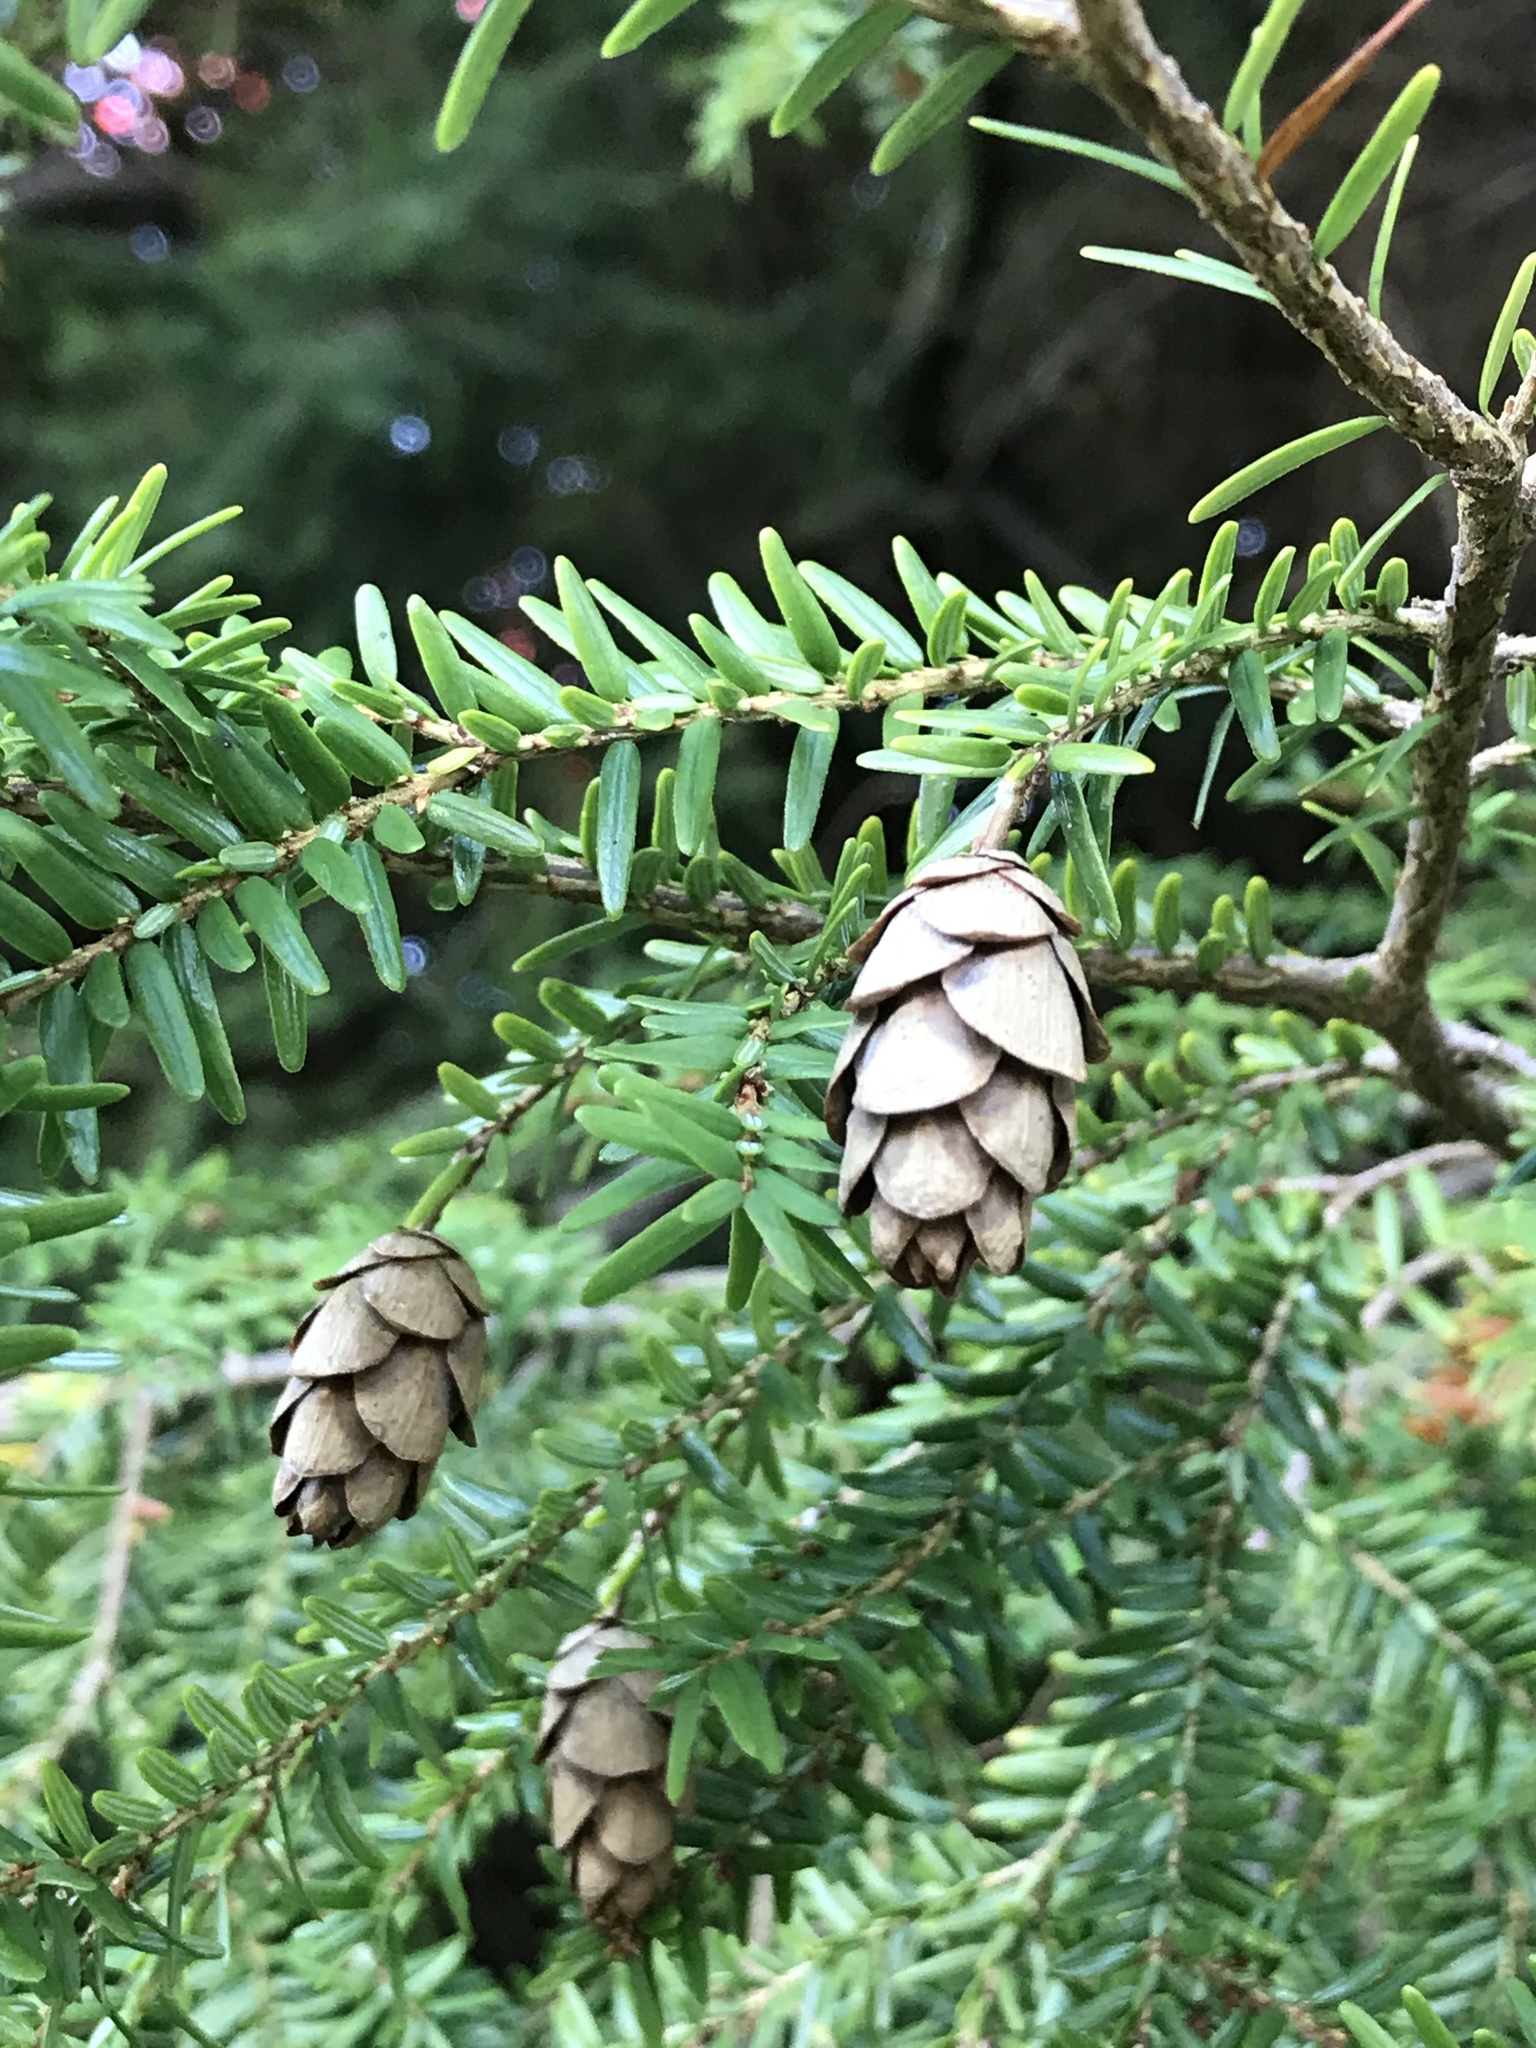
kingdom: Plantae
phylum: Tracheophyta
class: Pinopsida
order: Pinales
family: Pinaceae
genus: Tsuga
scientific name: Tsuga heterophylla
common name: Western hemlock
